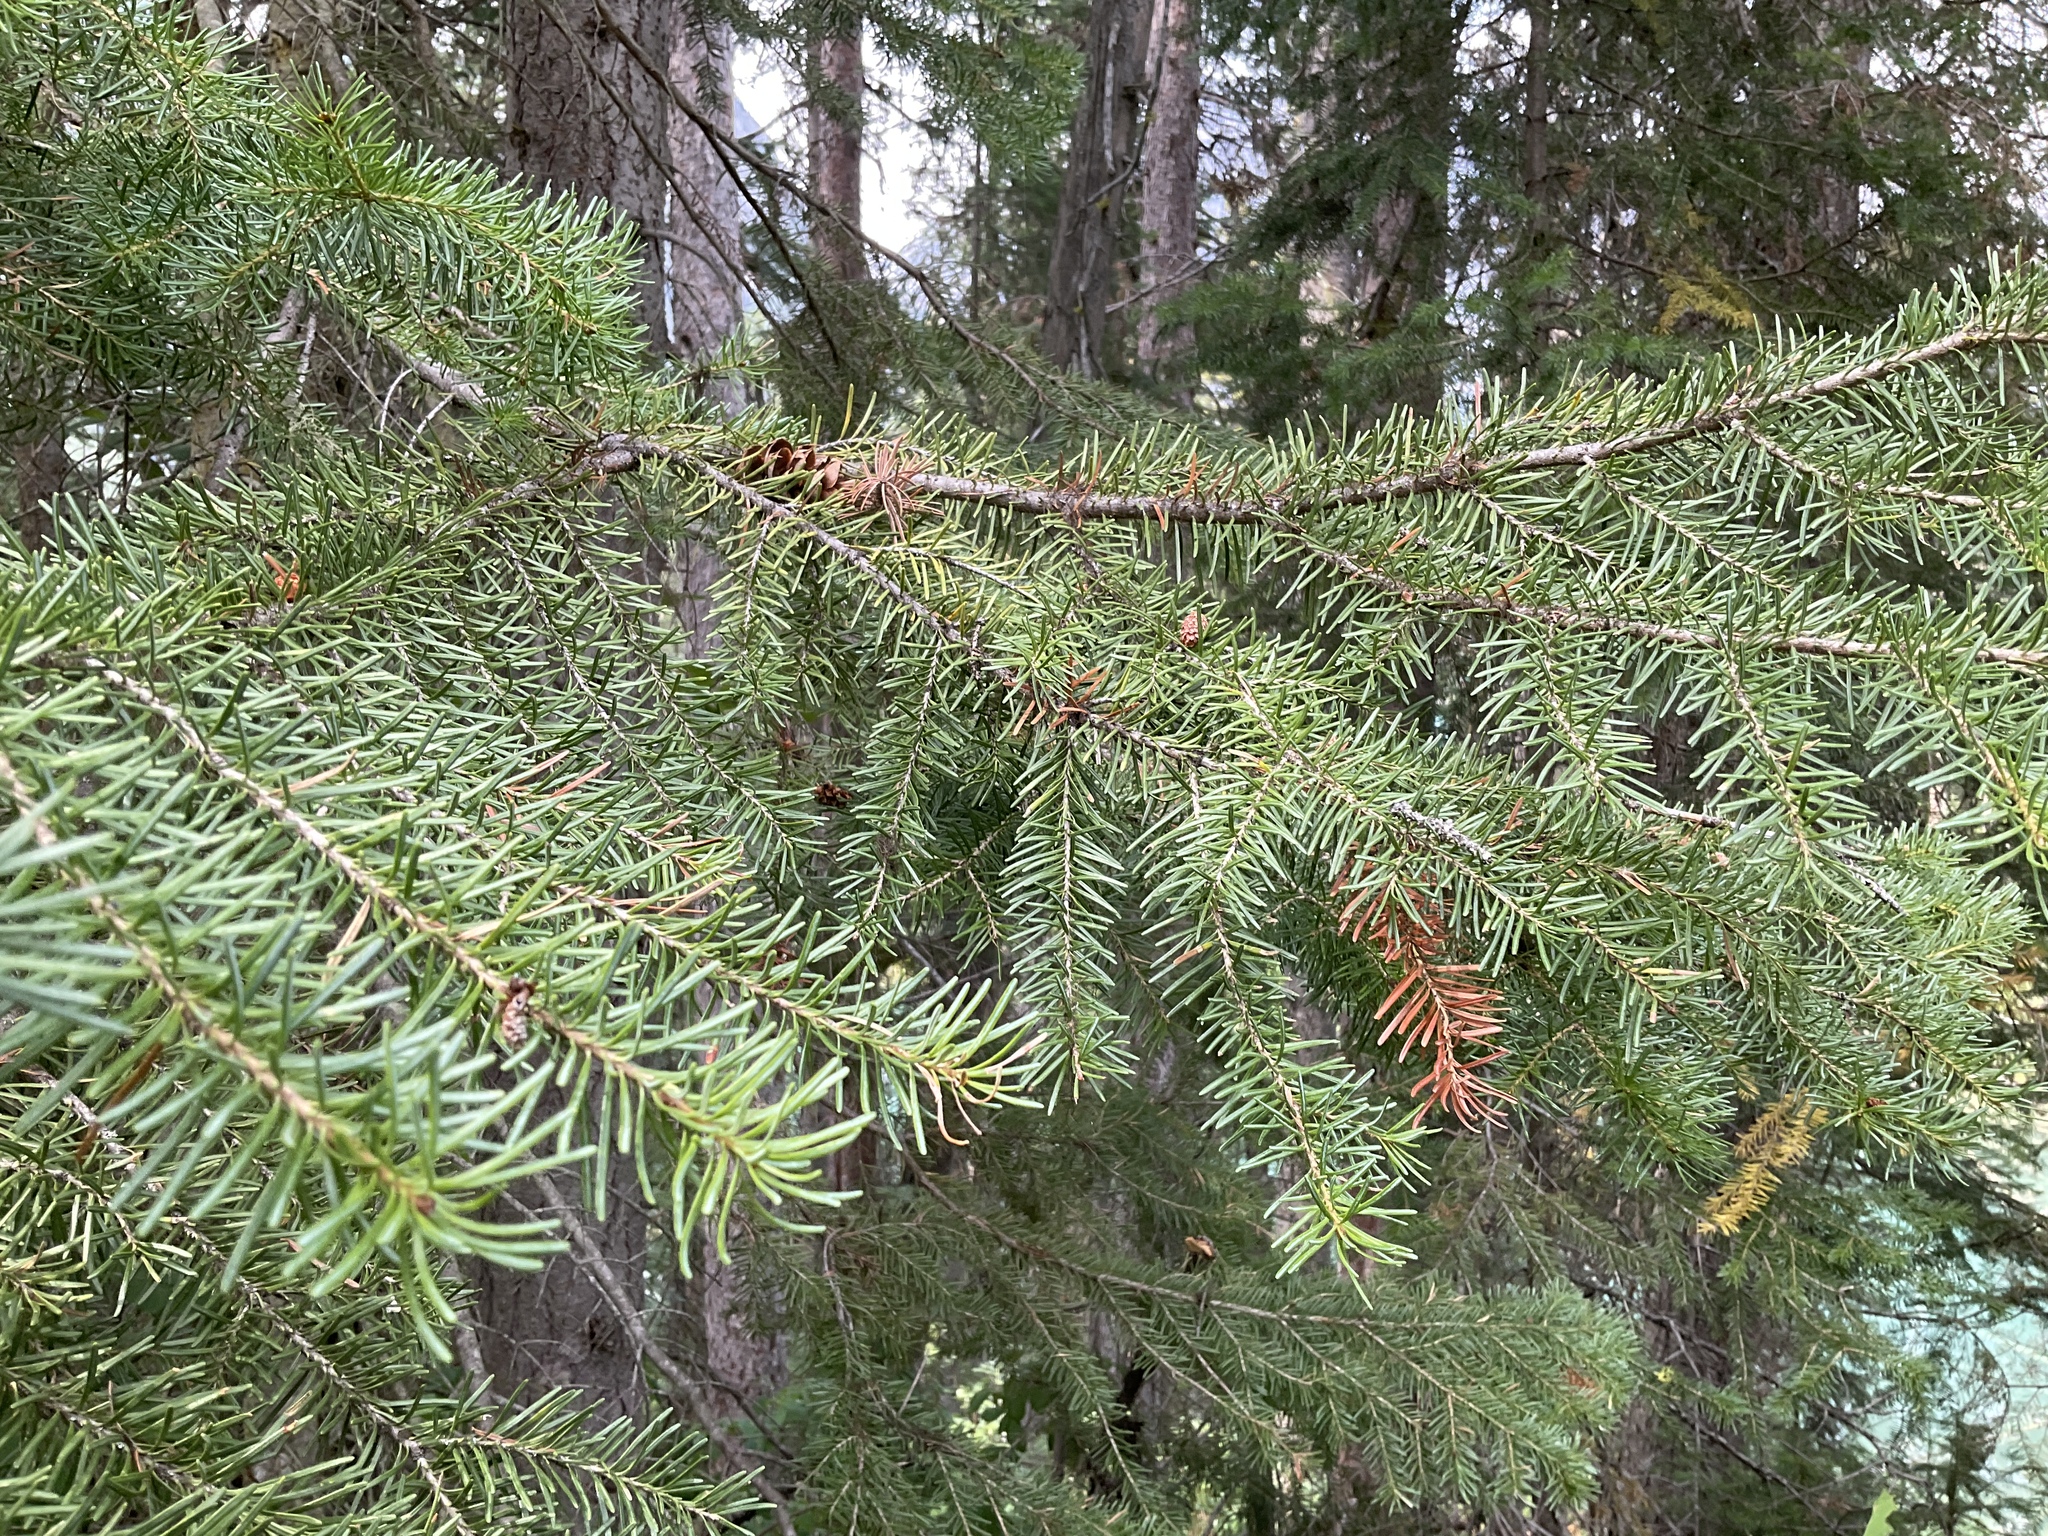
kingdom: Plantae
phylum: Tracheophyta
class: Pinopsida
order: Pinales
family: Pinaceae
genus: Pseudotsuga
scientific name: Pseudotsuga menziesii
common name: Douglas fir
